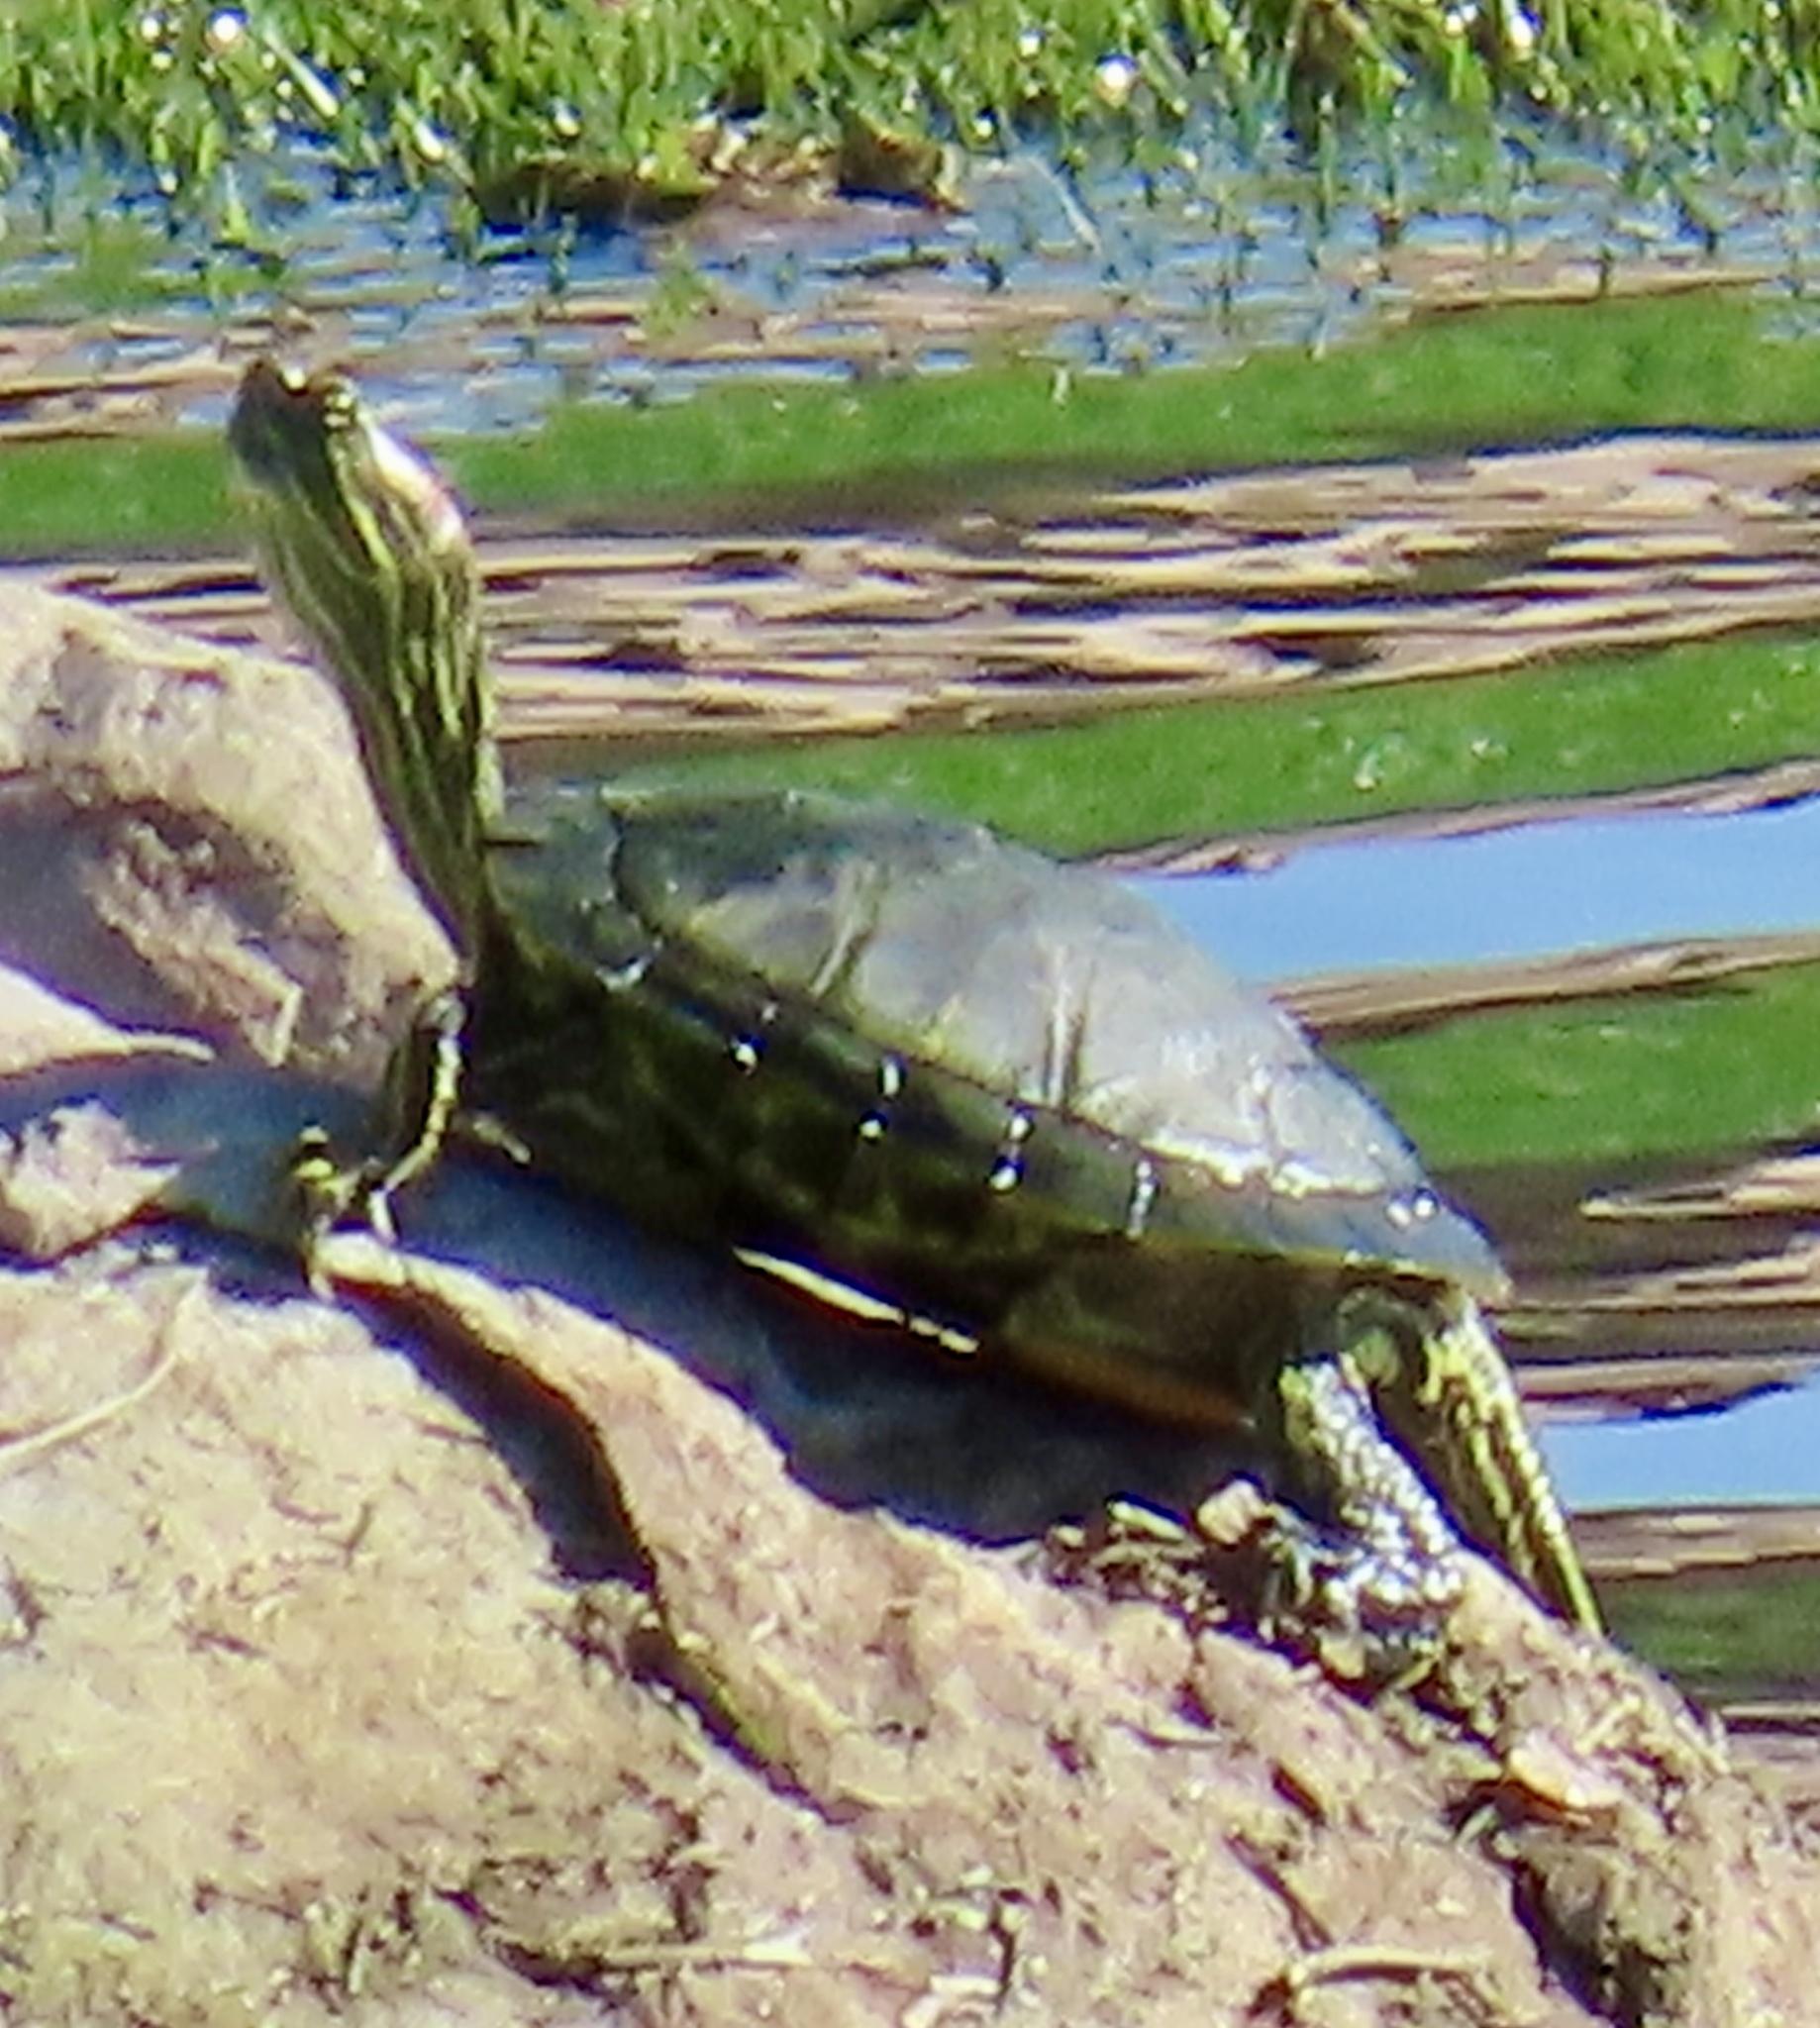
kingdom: Animalia
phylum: Chordata
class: Testudines
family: Emydidae
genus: Trachemys
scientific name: Trachemys scripta
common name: Slider
